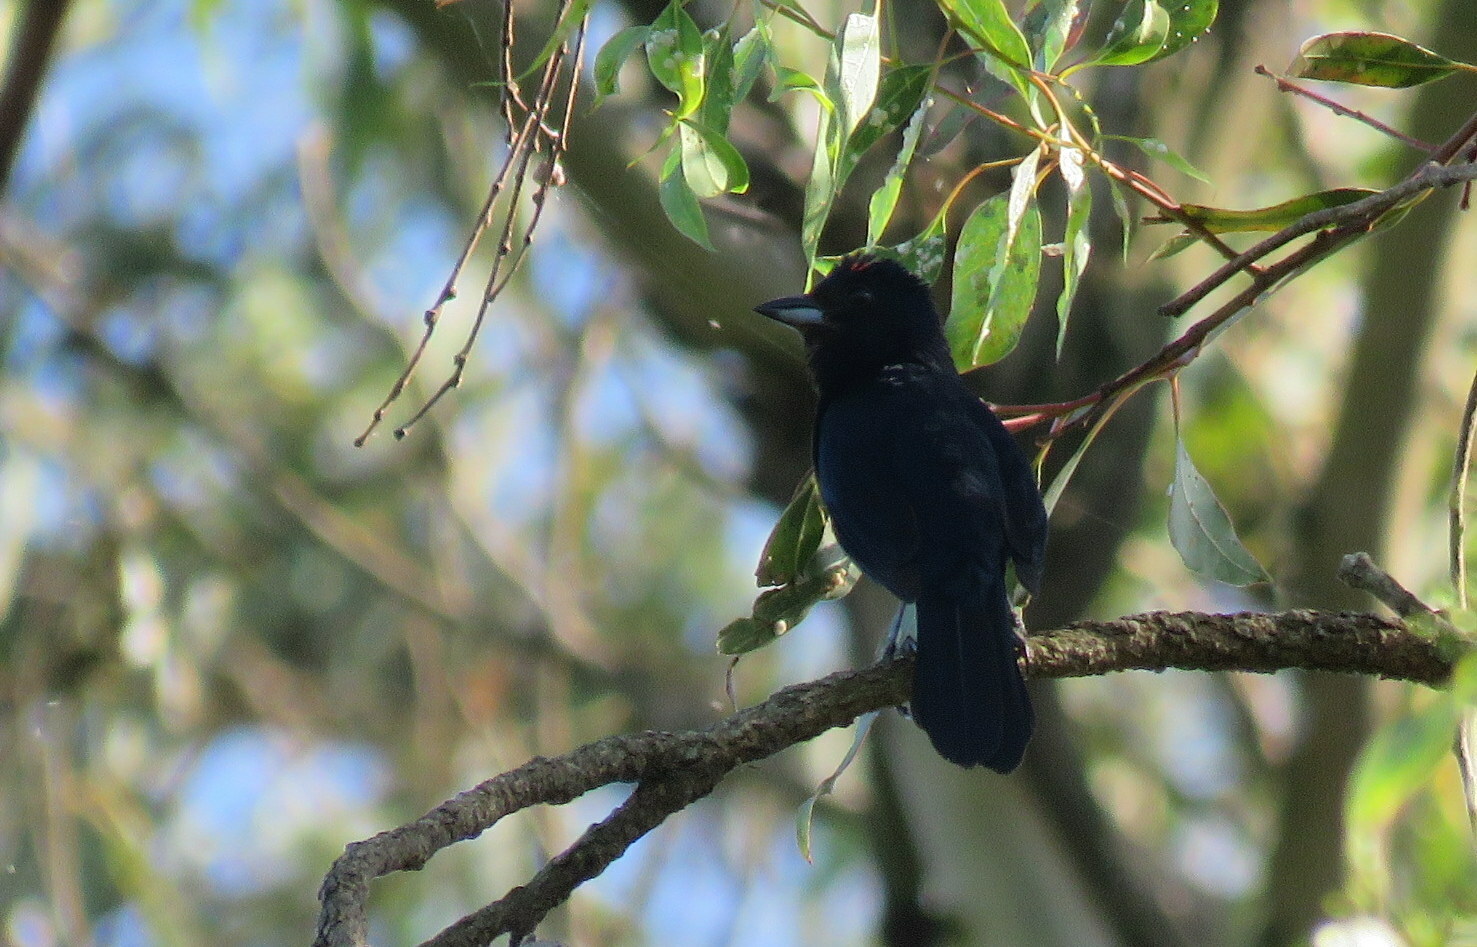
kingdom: Animalia
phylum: Chordata
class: Aves
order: Passeriformes
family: Thraupidae
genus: Tachyphonus
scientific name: Tachyphonus coronatus
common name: Ruby-crowned tanager
